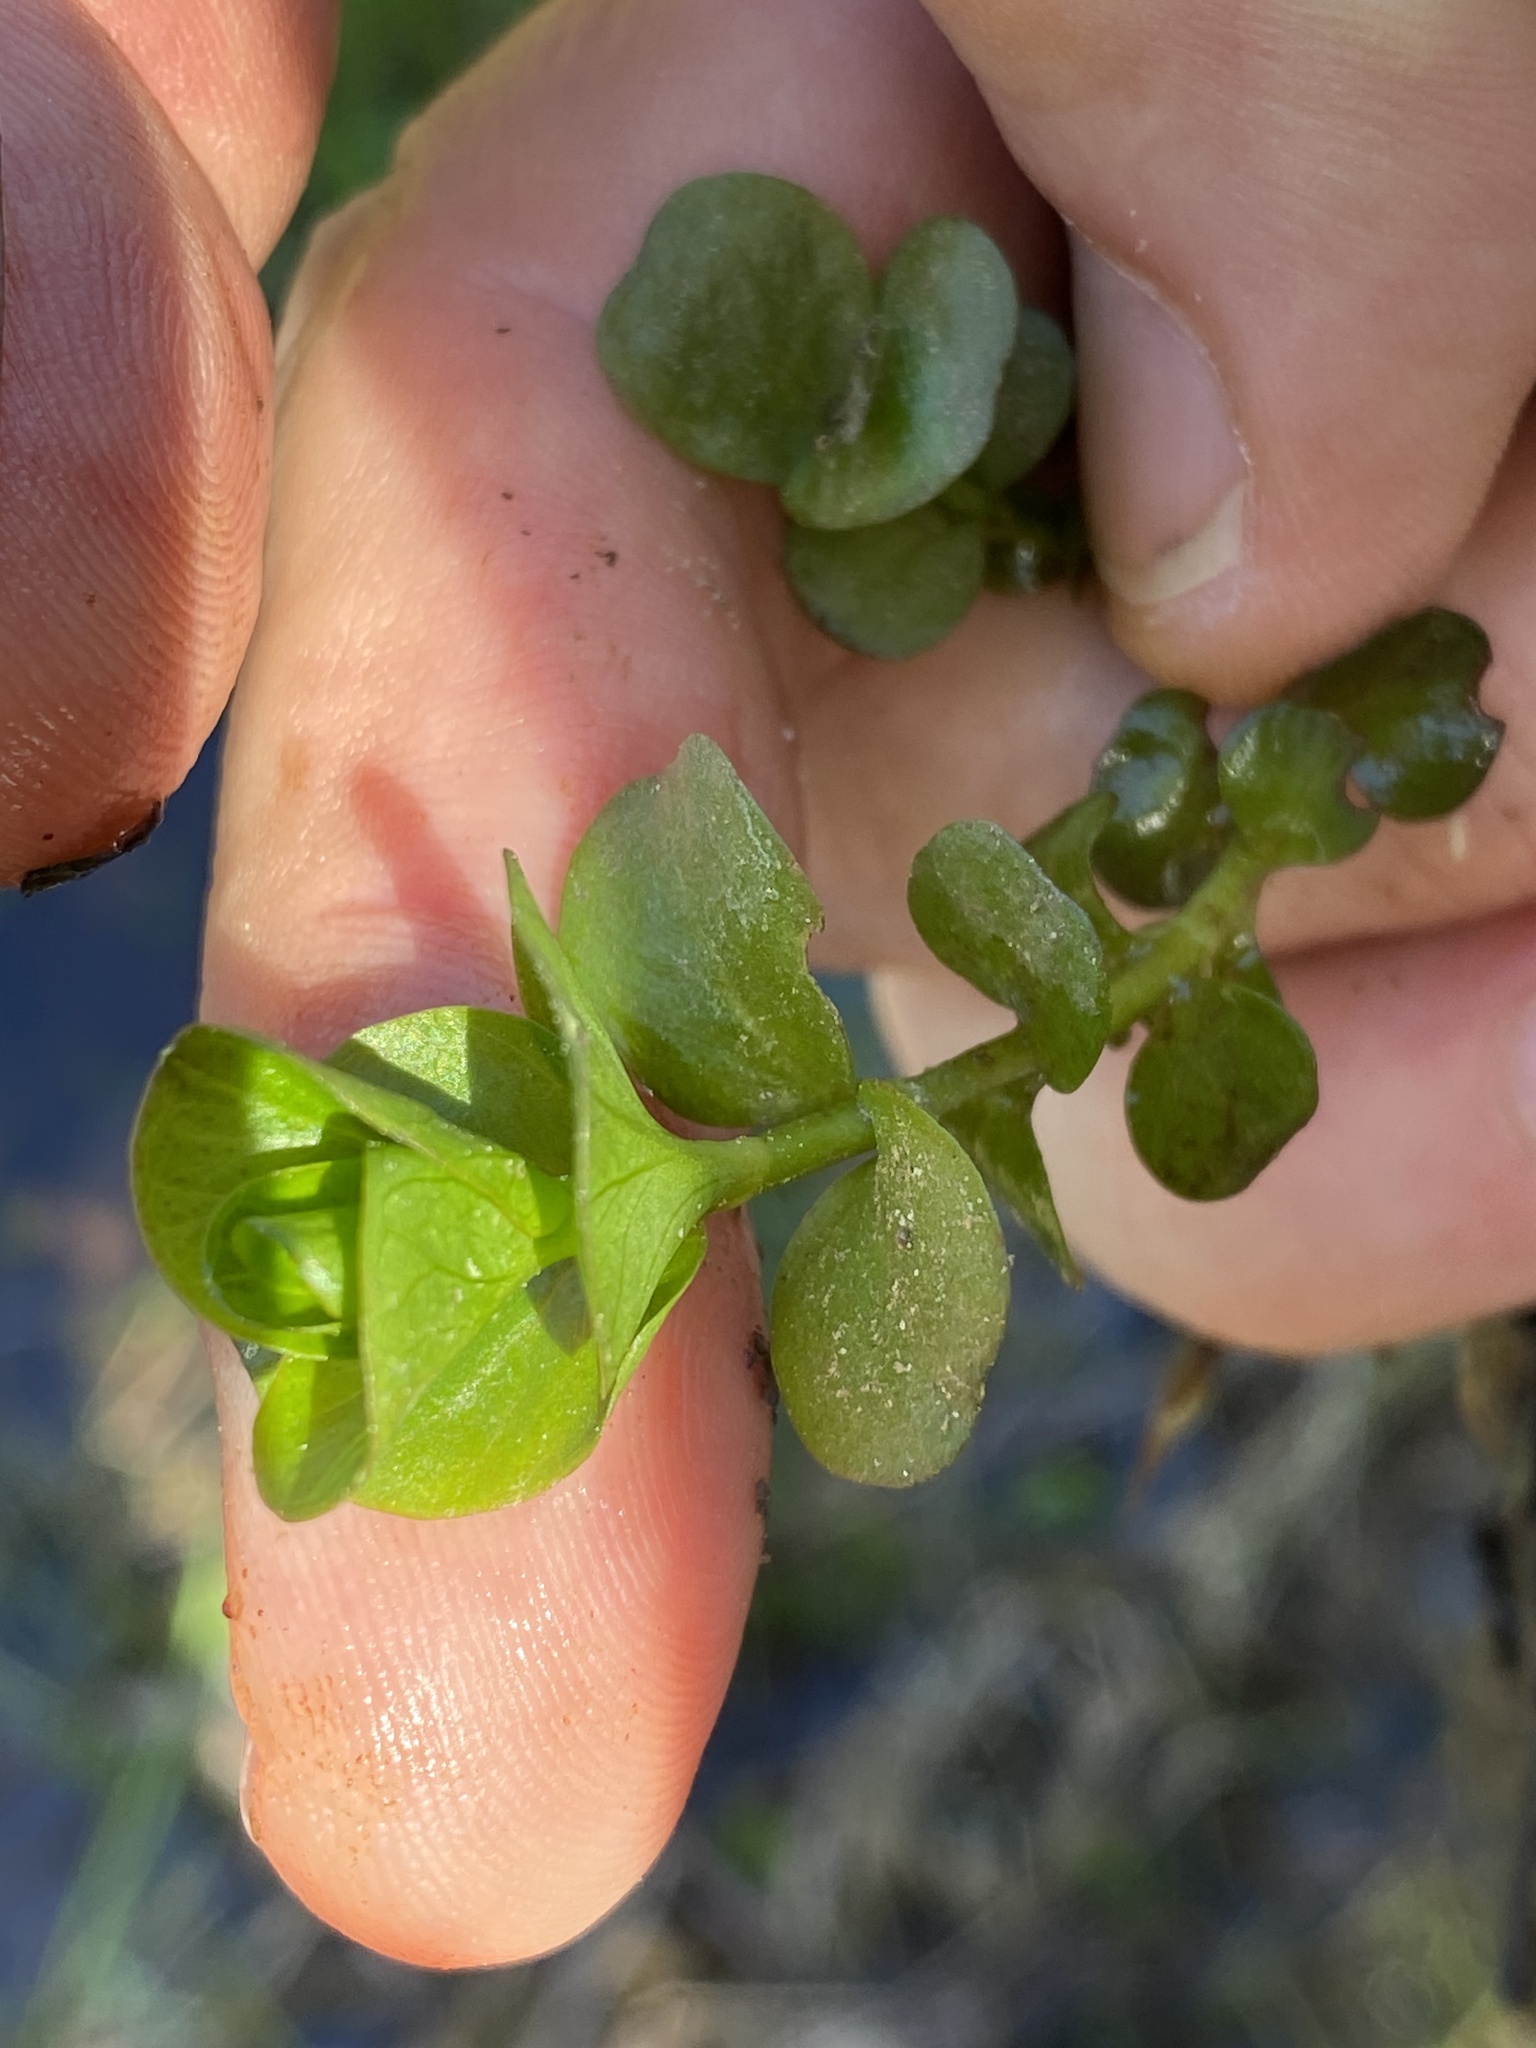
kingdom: Plantae
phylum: Tracheophyta
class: Magnoliopsida
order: Ericales
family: Primulaceae
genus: Lysimachia
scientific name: Lysimachia nummularia
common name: Moneywort
